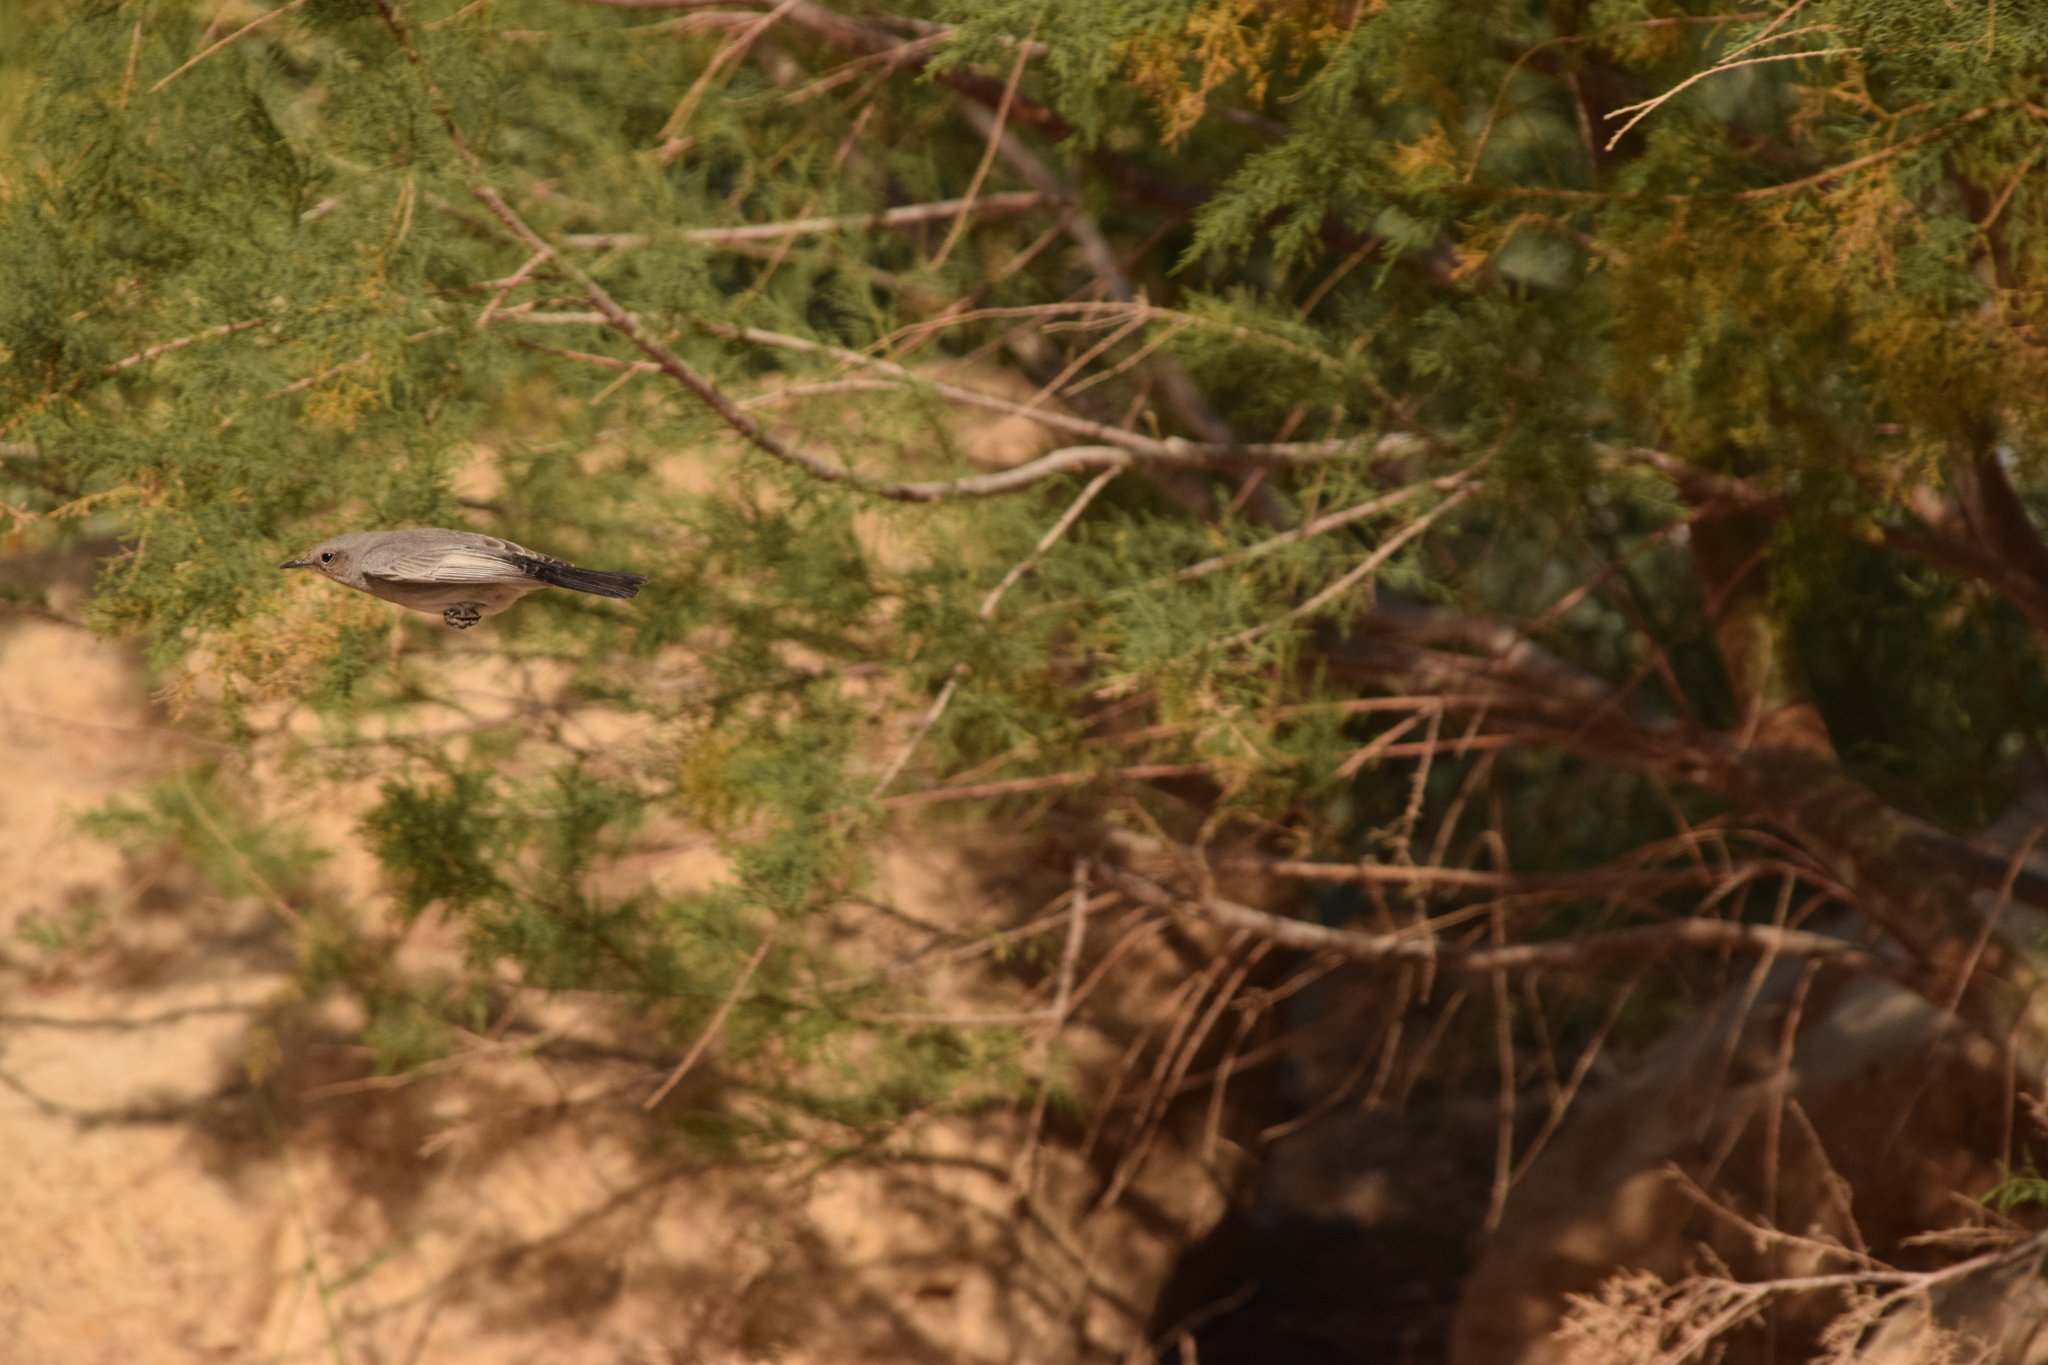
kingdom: Animalia
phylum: Chordata
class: Aves
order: Passeriformes
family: Muscicapidae
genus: Oenanthe
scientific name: Oenanthe melanura
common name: Blackstart
